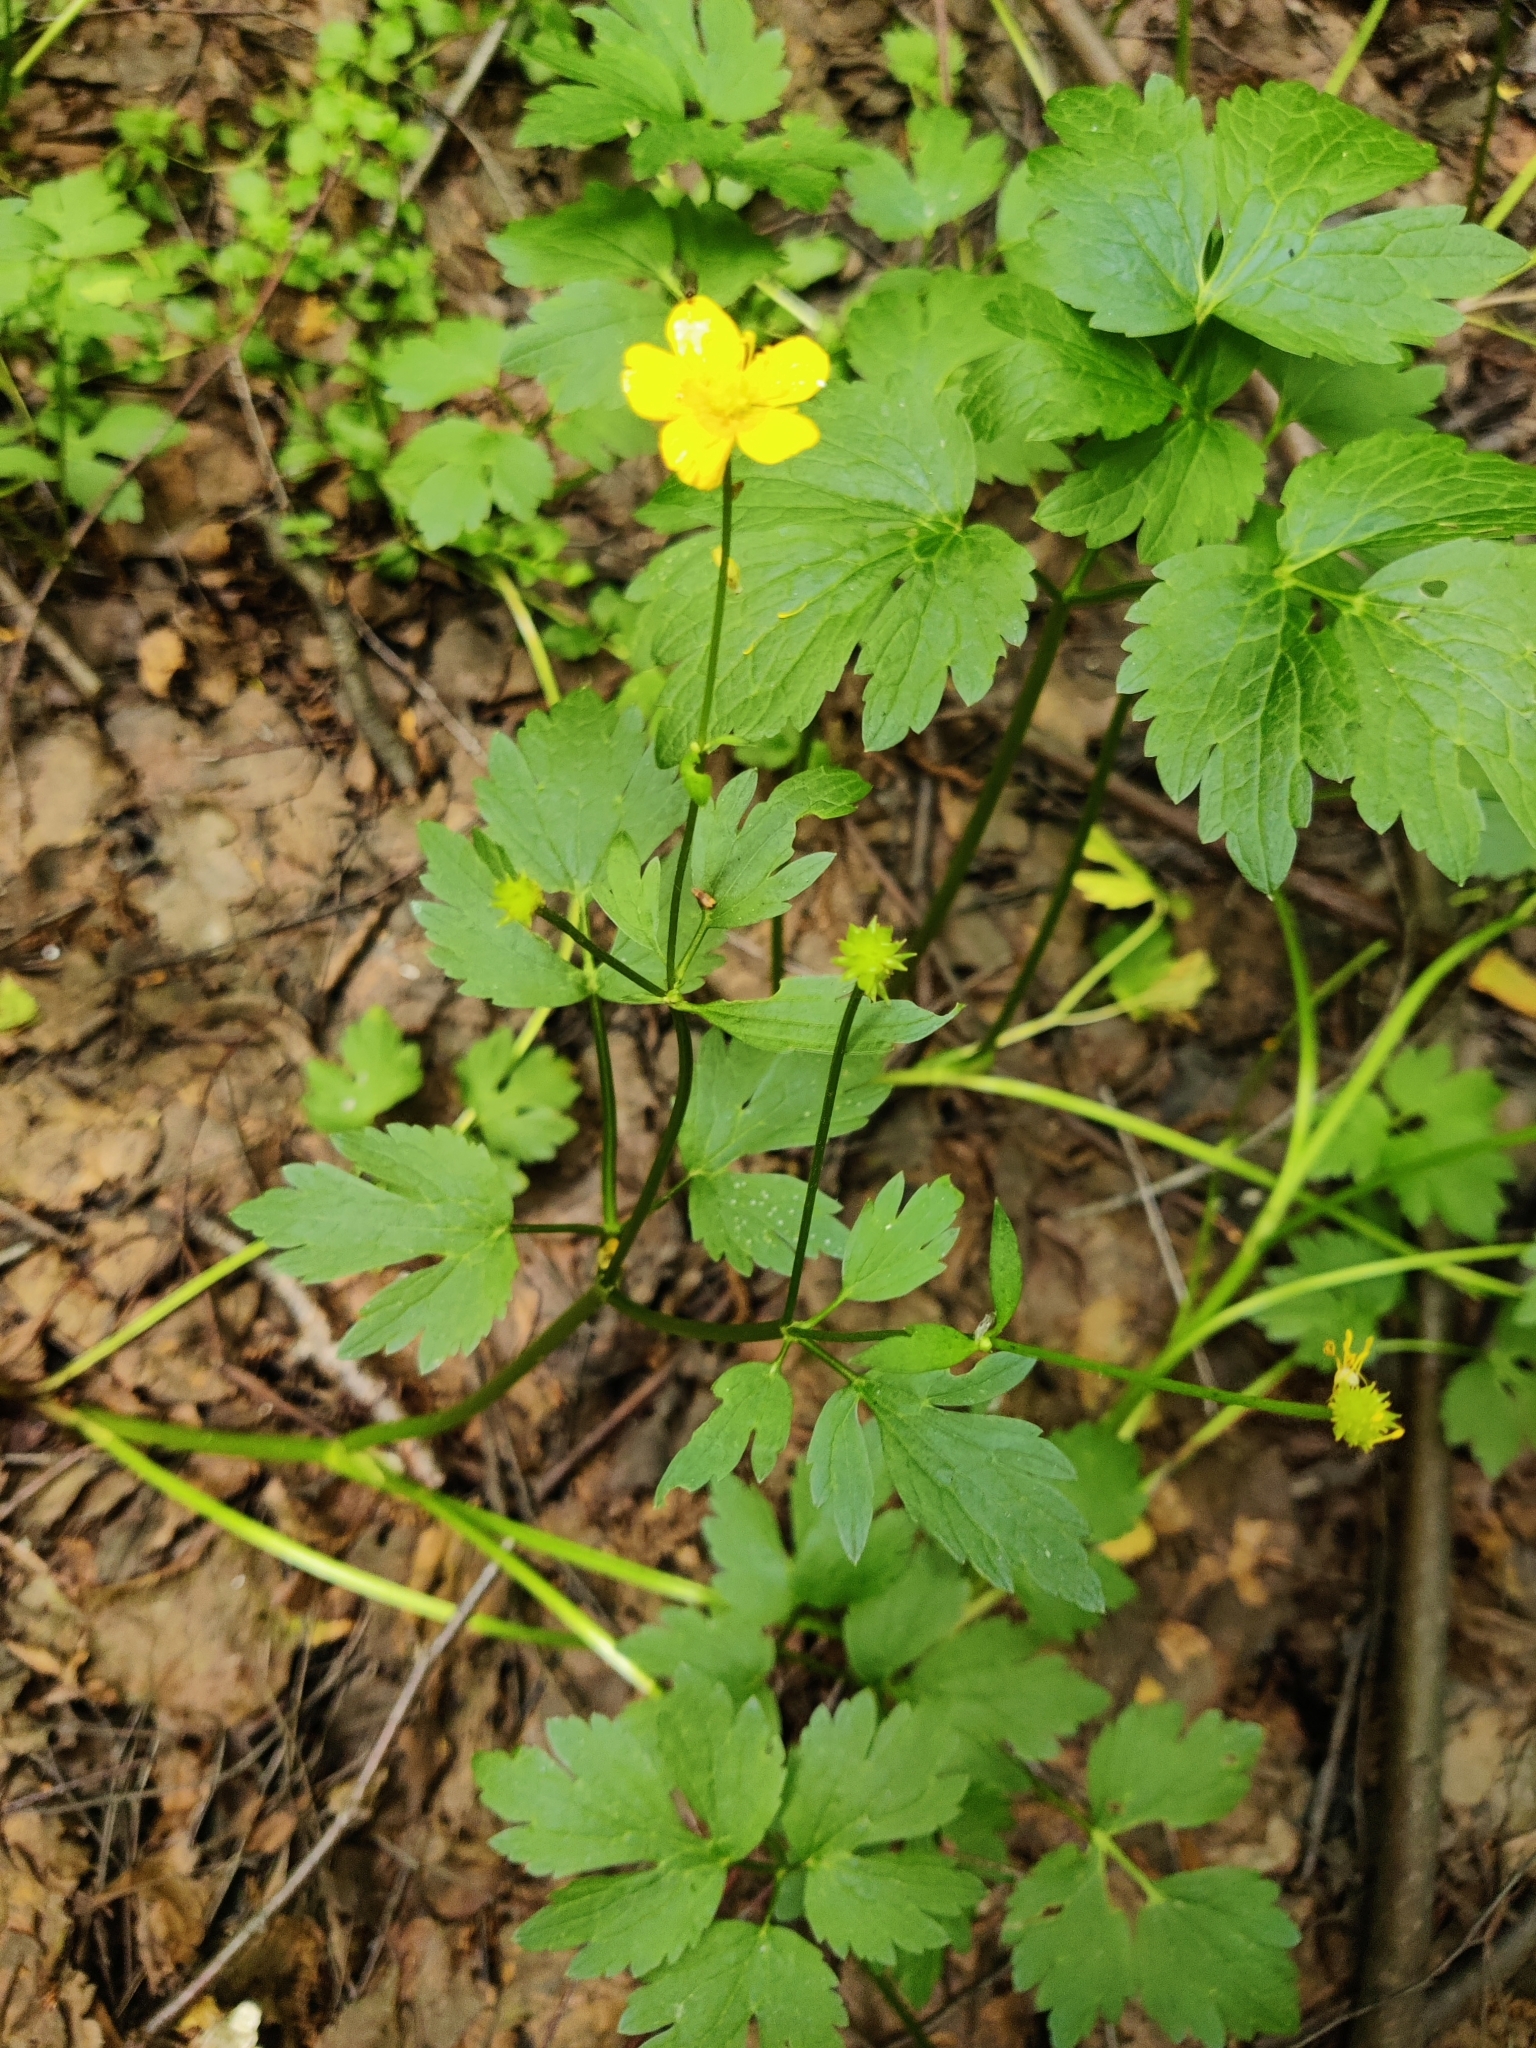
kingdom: Plantae
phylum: Tracheophyta
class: Magnoliopsida
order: Ranunculales
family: Ranunculaceae
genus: Ranunculus
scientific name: Ranunculus repens
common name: Creeping buttercup
